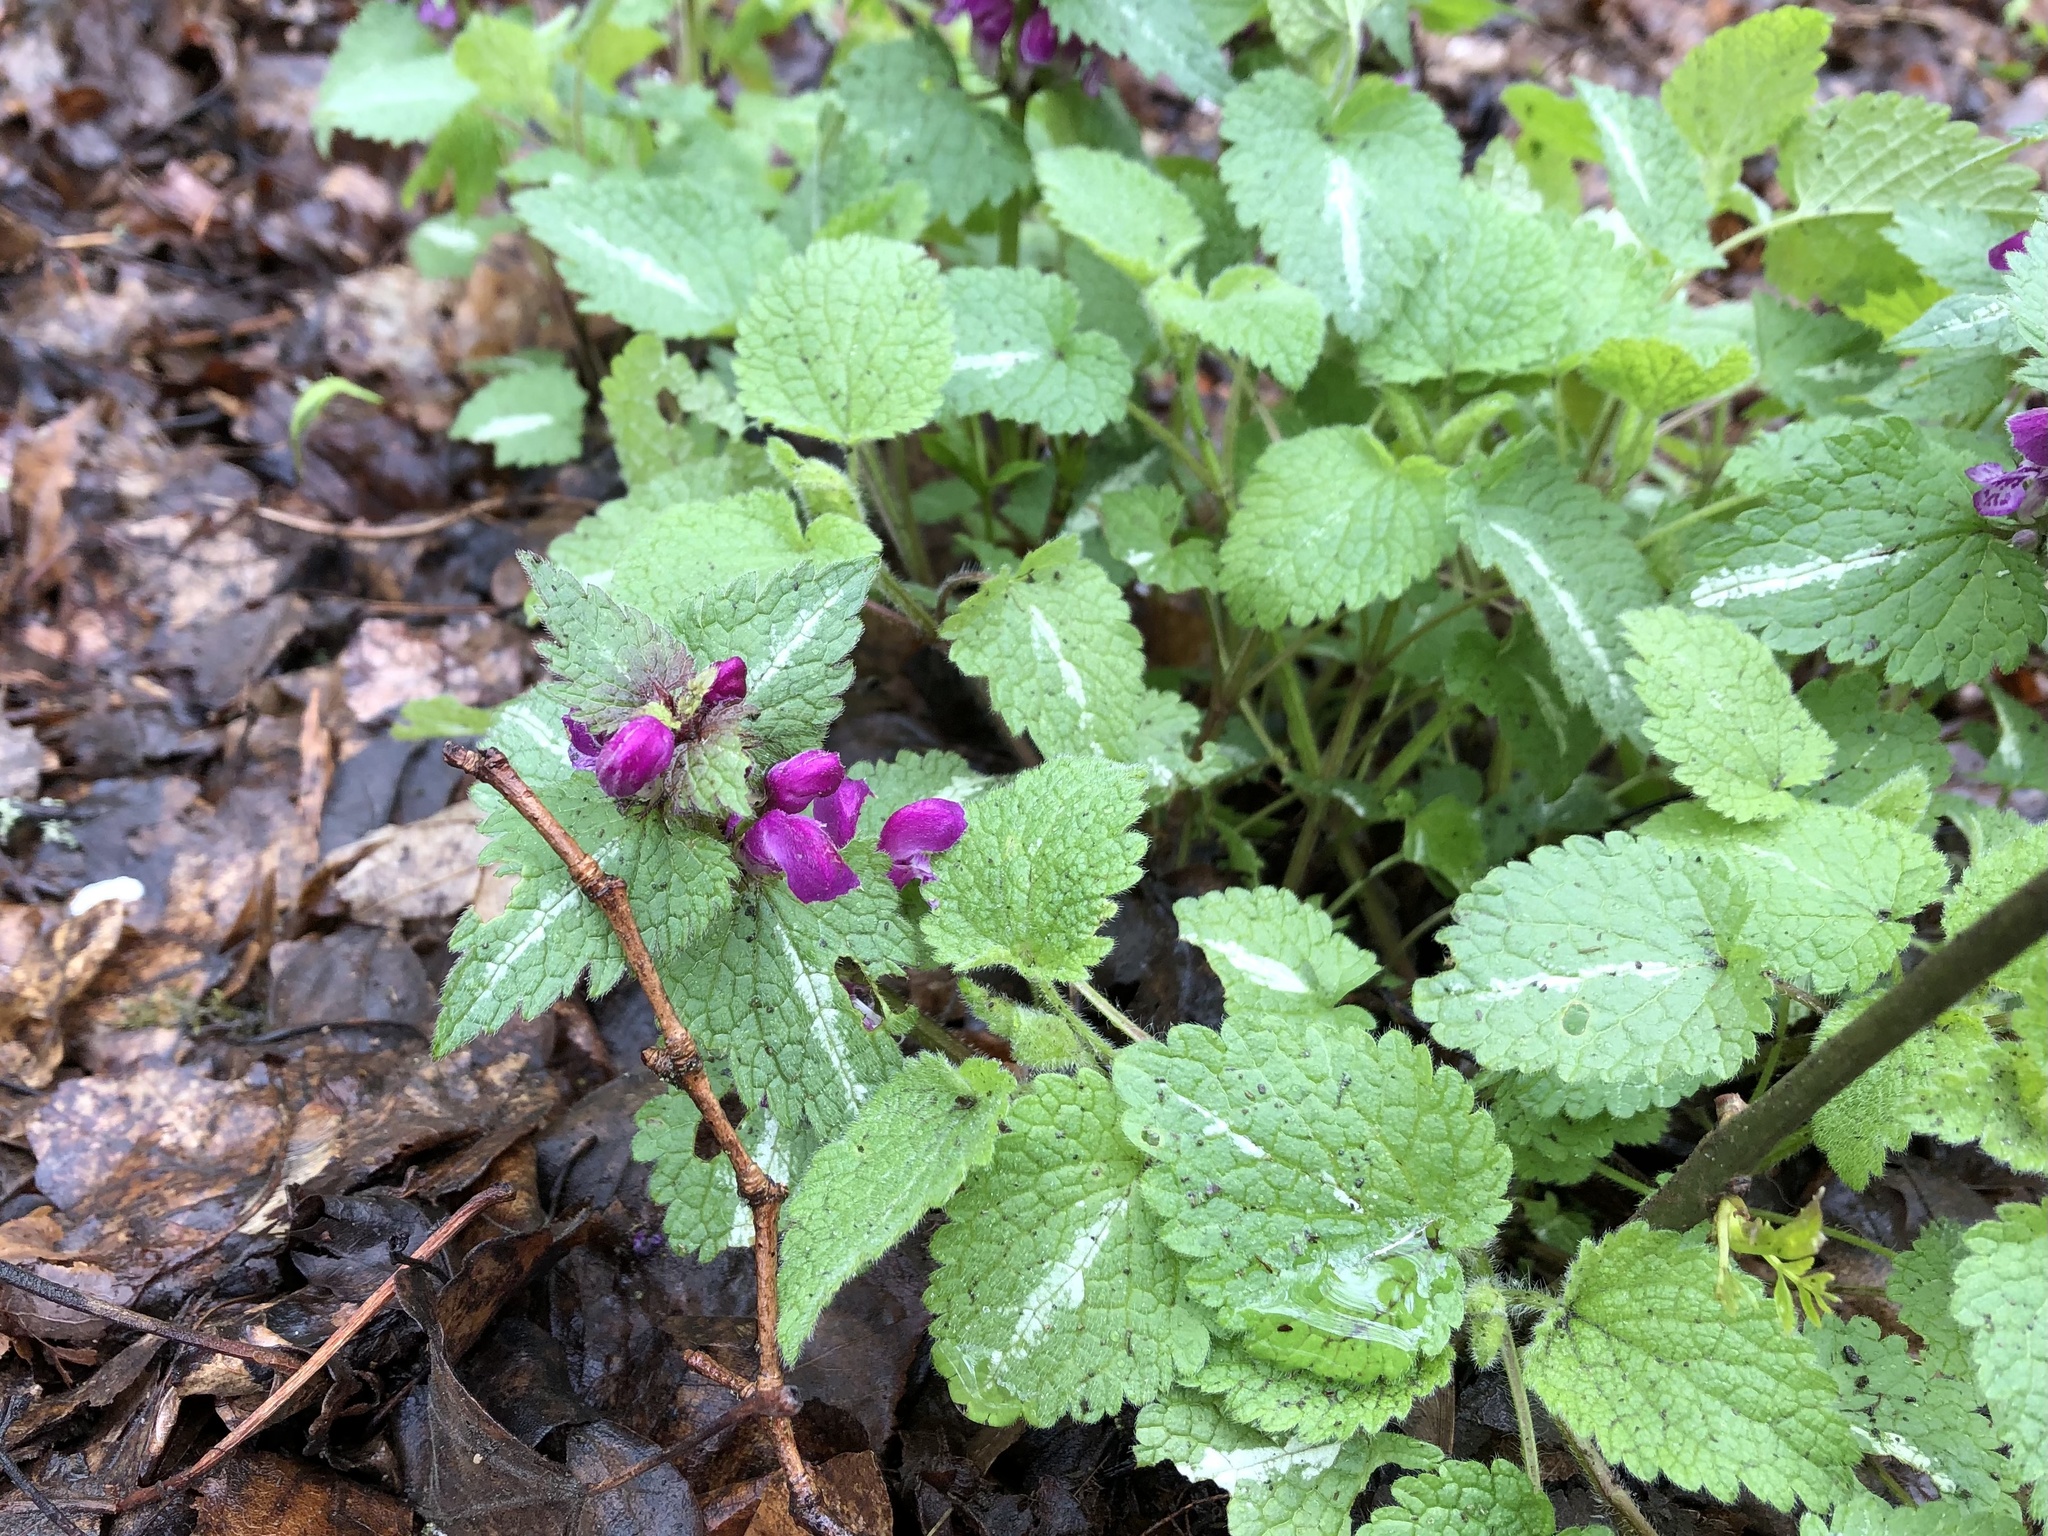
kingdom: Plantae
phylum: Tracheophyta
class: Magnoliopsida
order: Lamiales
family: Lamiaceae
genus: Lamium
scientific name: Lamium maculatum
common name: Spotted dead-nettle
